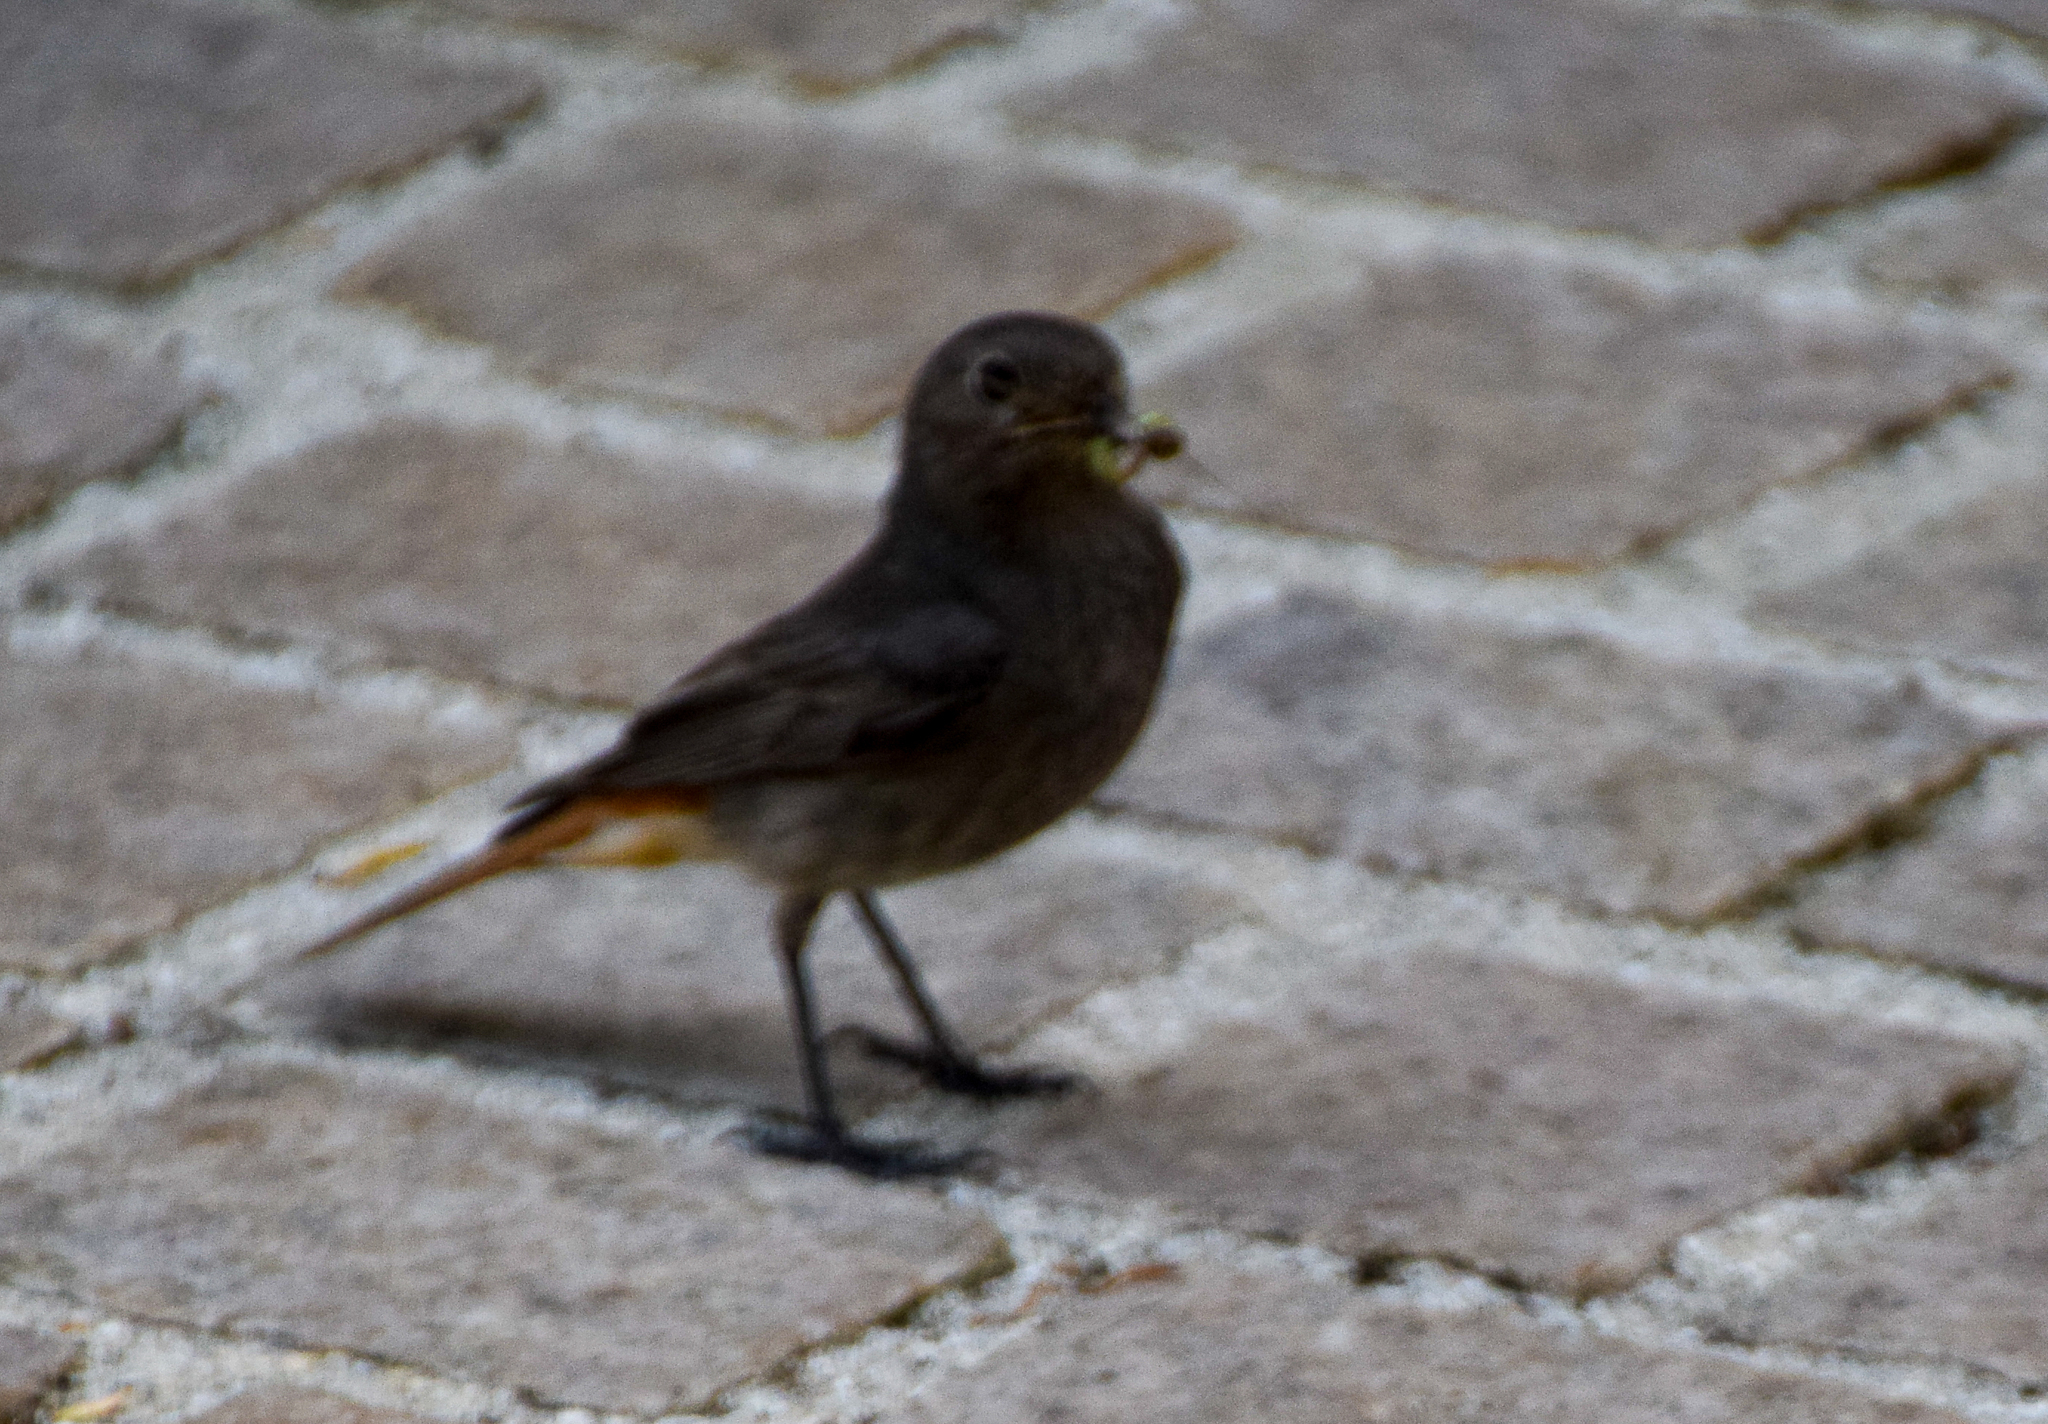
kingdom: Animalia
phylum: Chordata
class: Aves
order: Passeriformes
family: Muscicapidae
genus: Phoenicurus
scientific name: Phoenicurus ochruros
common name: Black redstart
